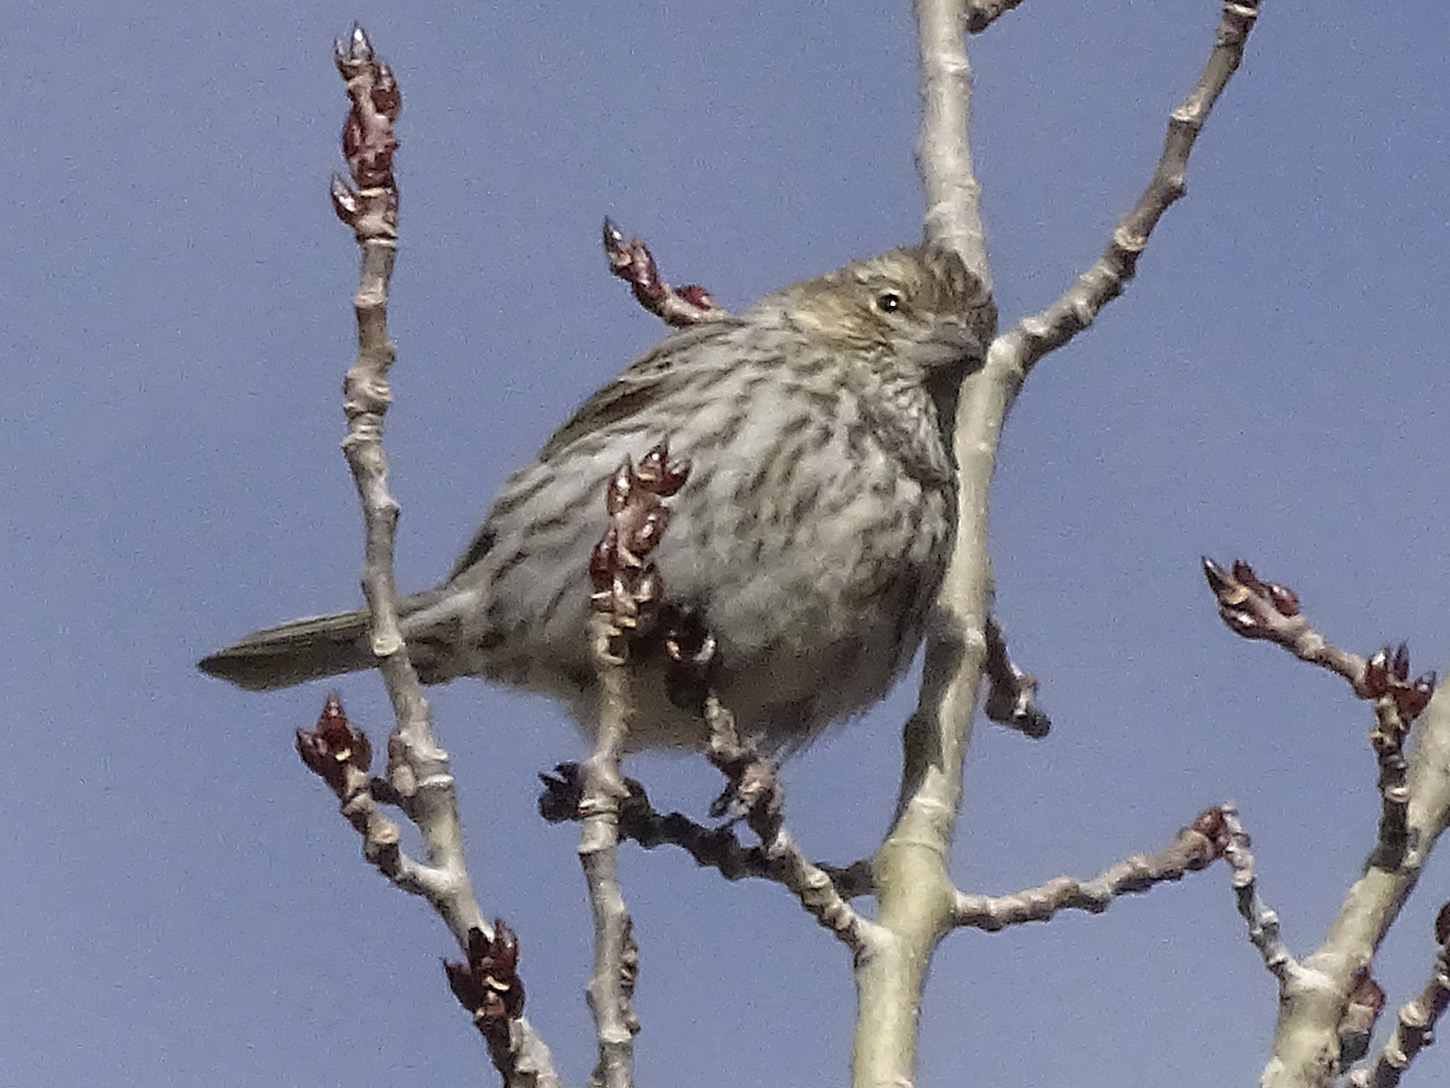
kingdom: Animalia
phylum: Chordata
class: Aves
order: Passeriformes
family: Fringillidae
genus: Haemorhous
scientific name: Haemorhous cassinii
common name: Cassin's finch
